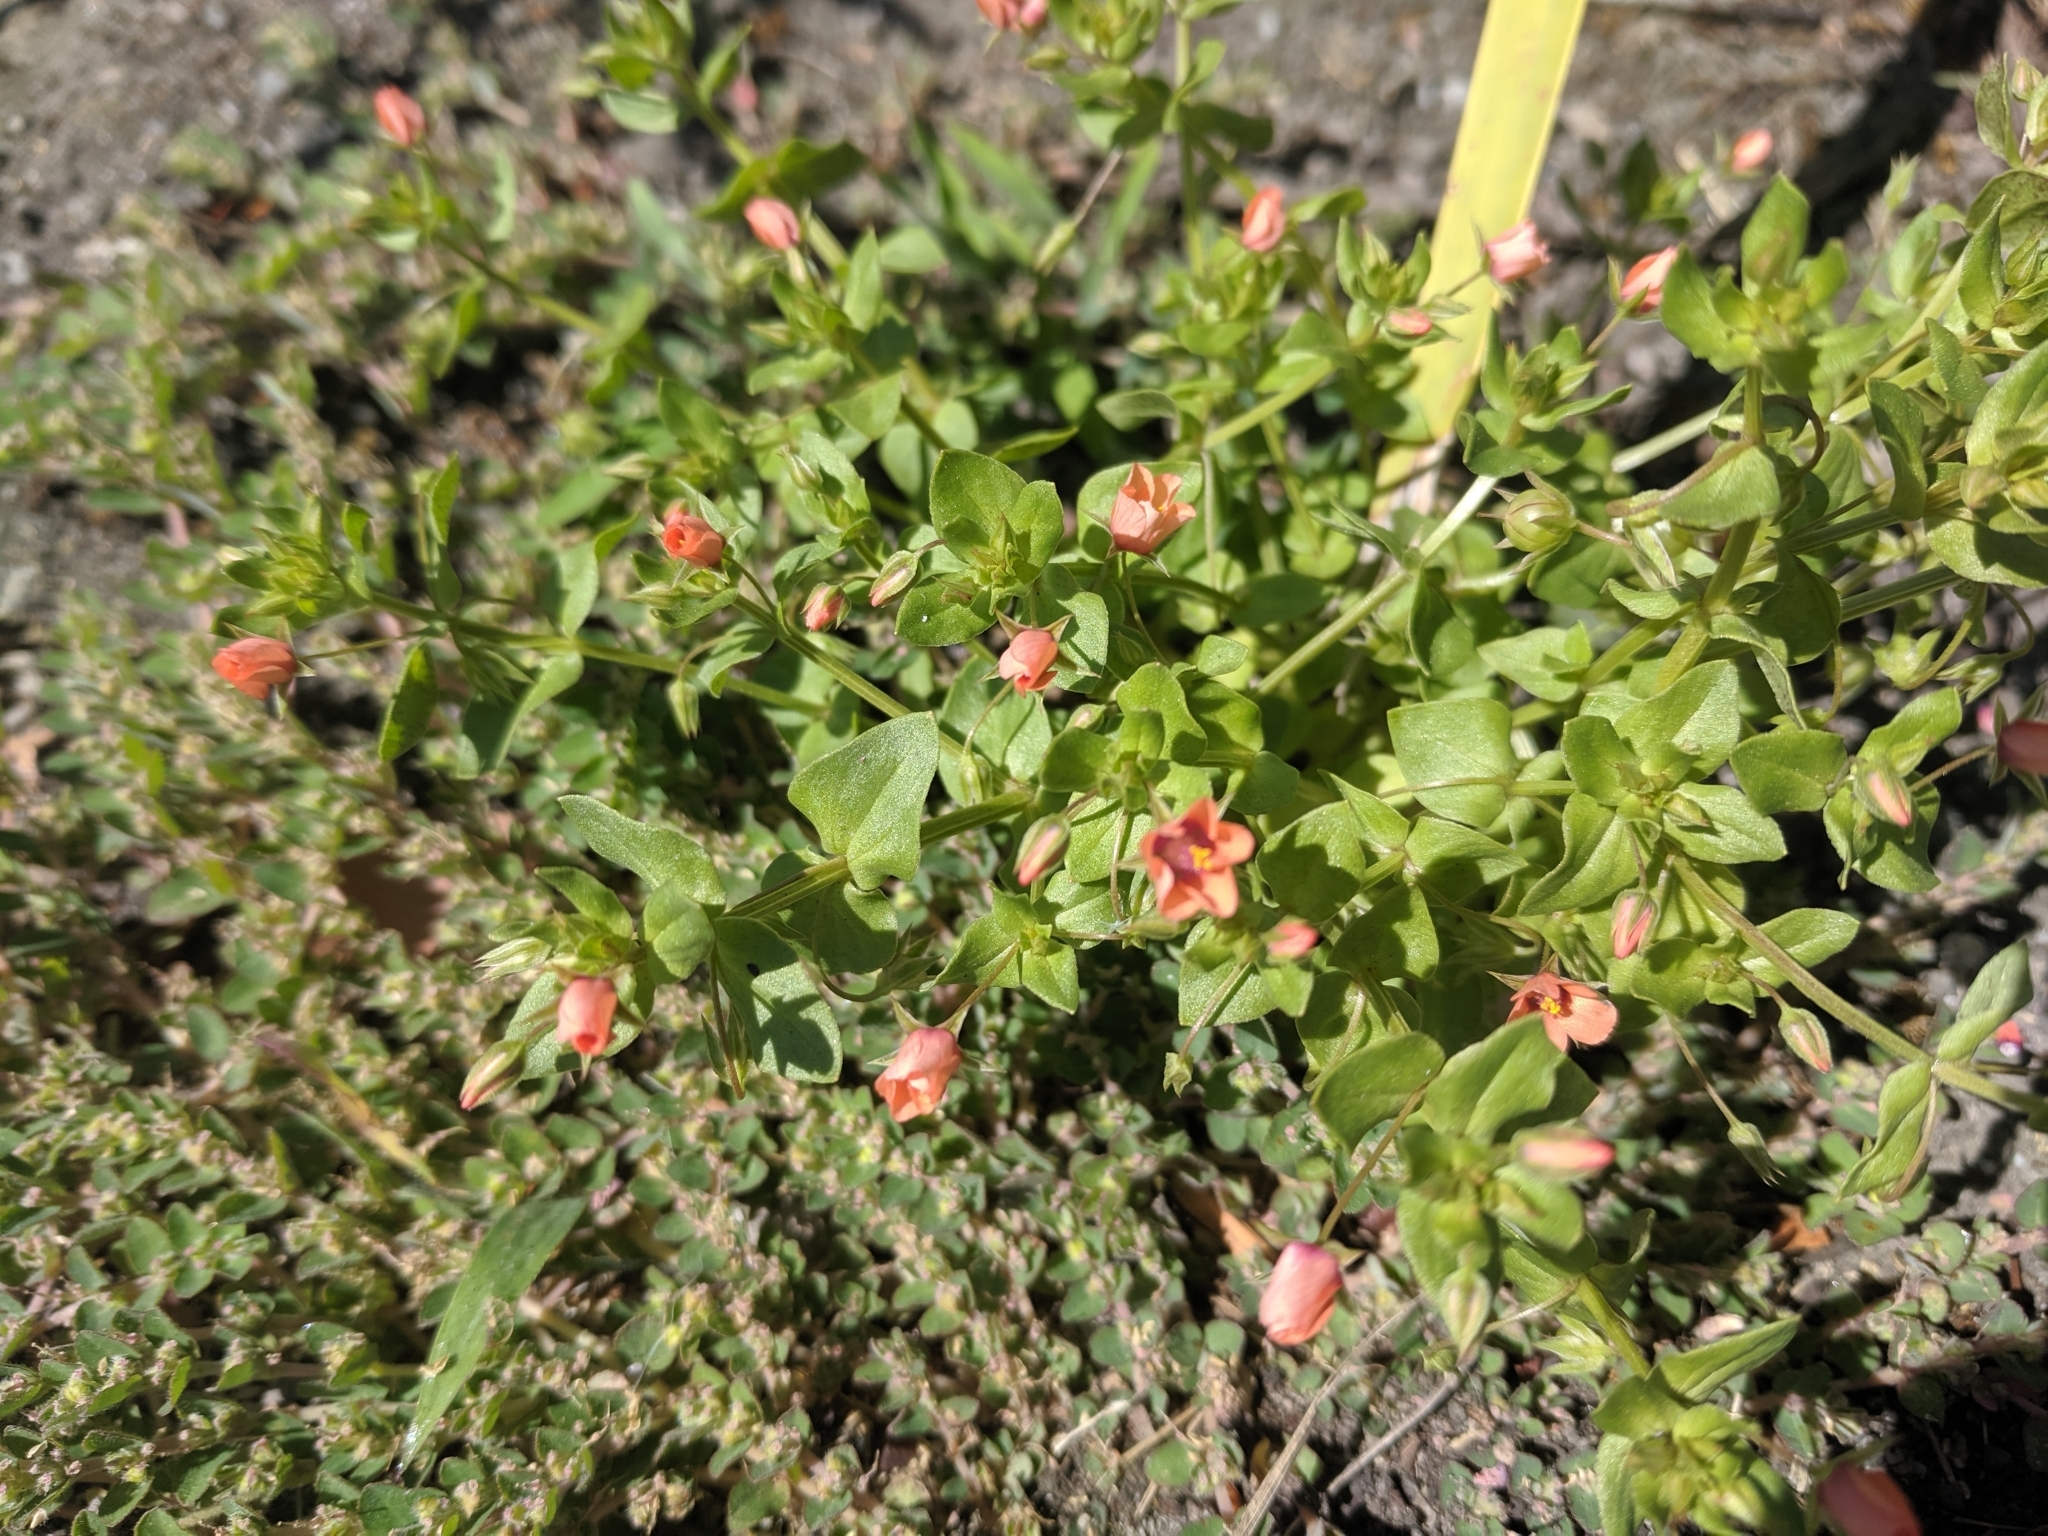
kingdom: Plantae
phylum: Tracheophyta
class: Magnoliopsida
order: Ericales
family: Primulaceae
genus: Lysimachia
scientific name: Lysimachia arvensis
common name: Scarlet pimpernel
